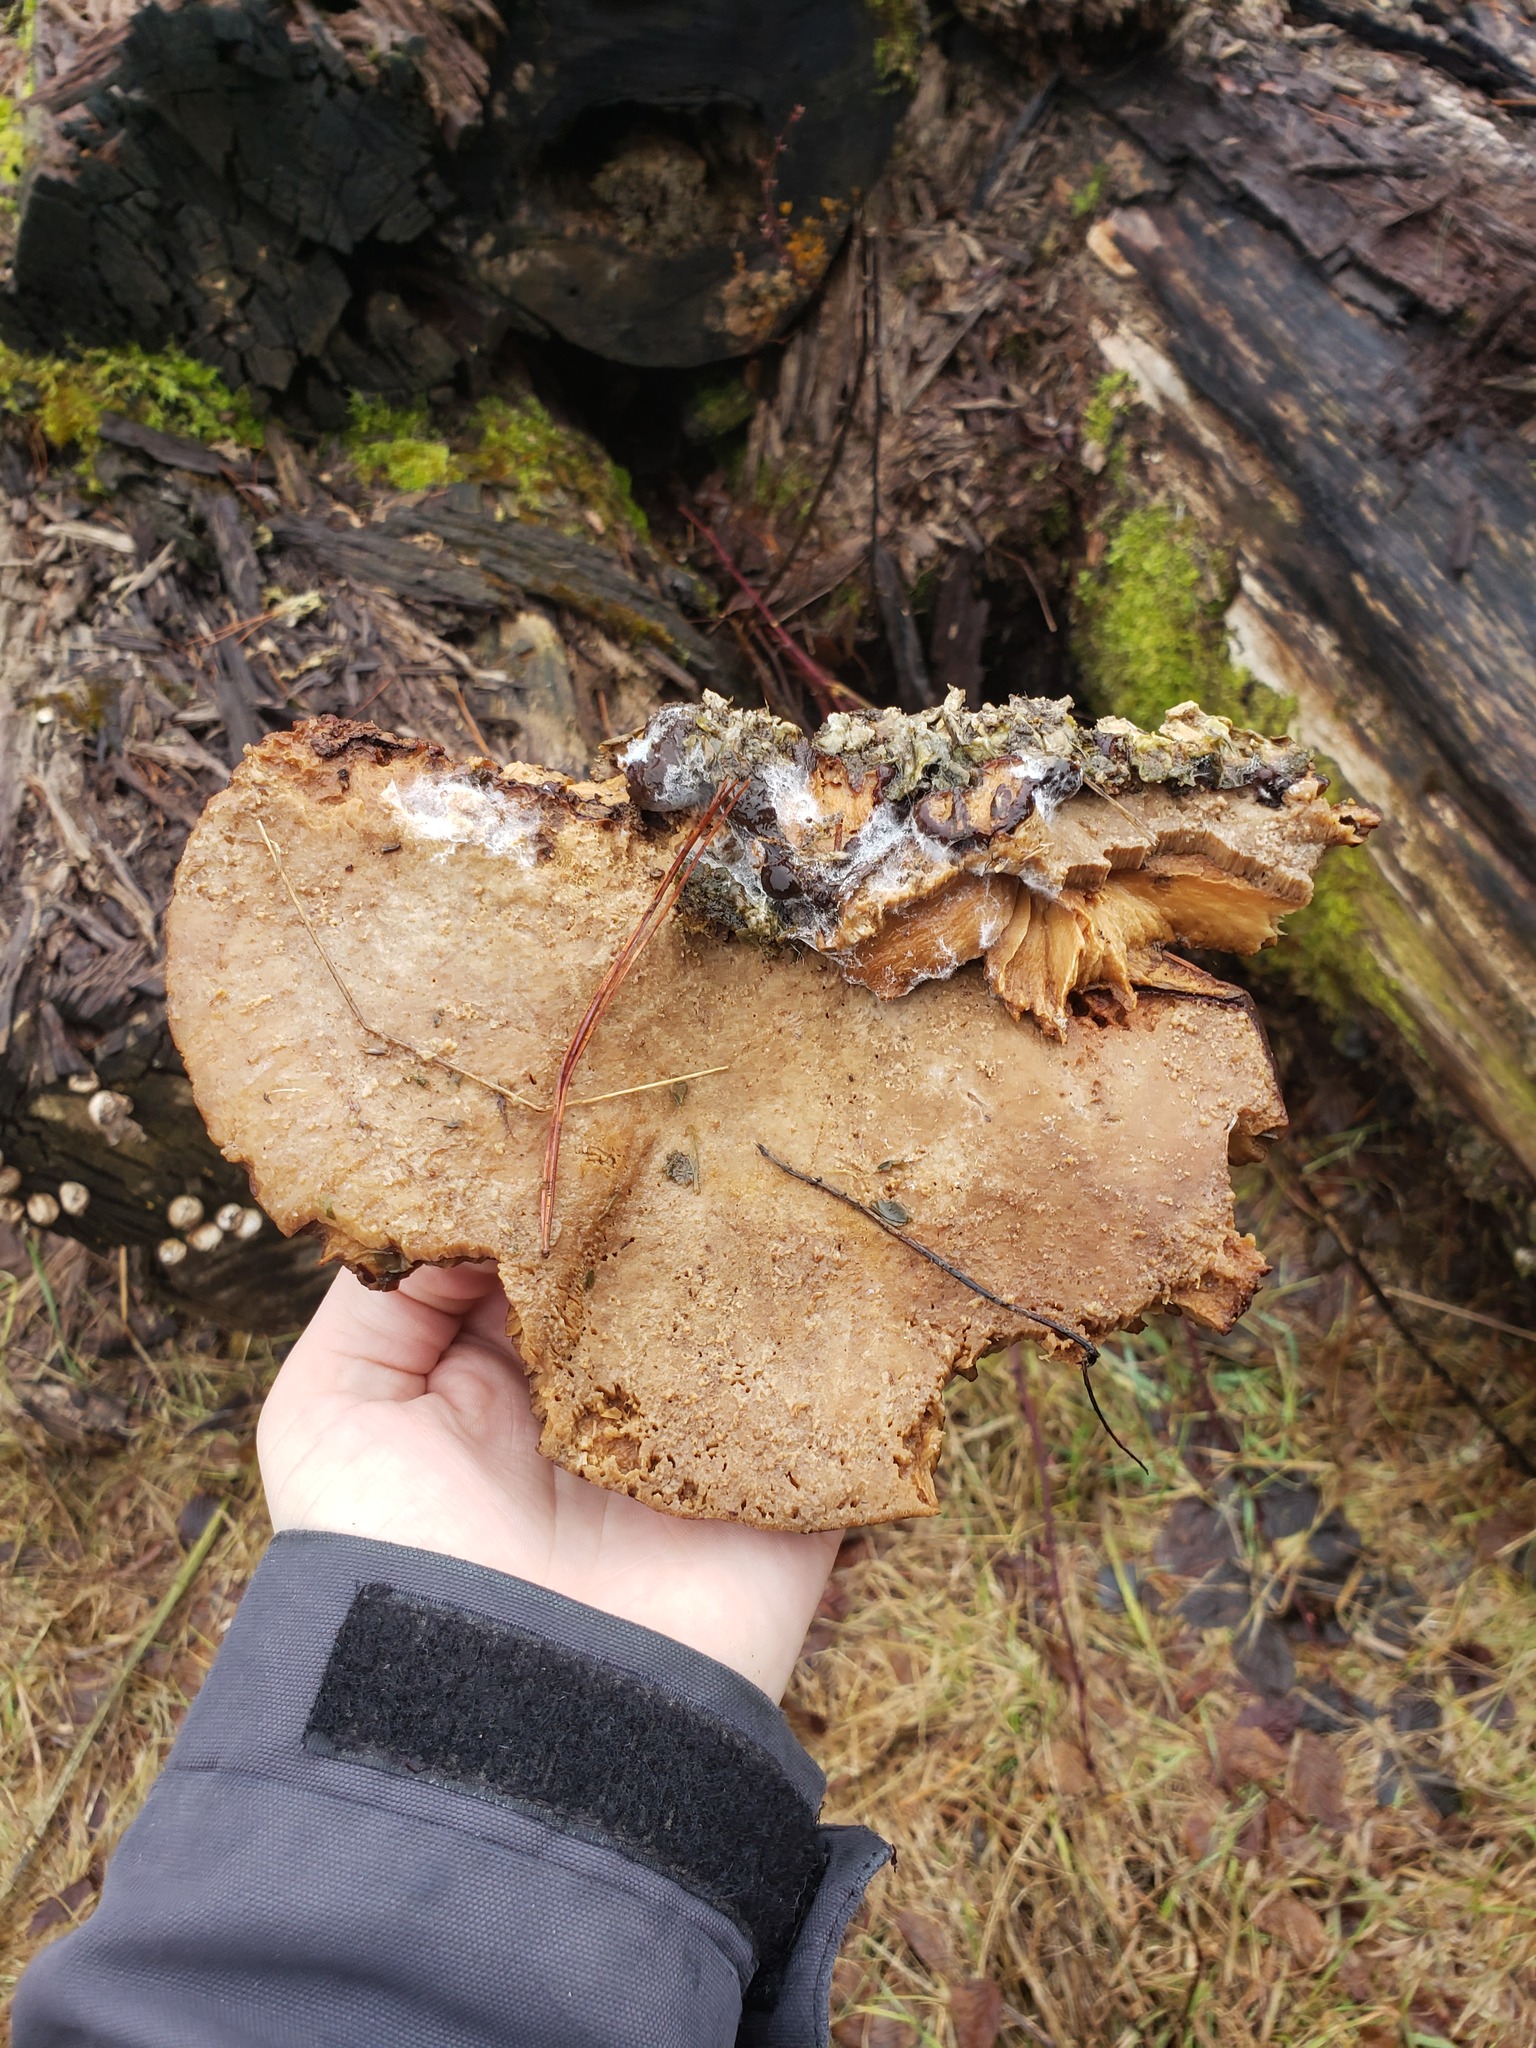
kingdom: Fungi
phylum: Basidiomycota
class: Agaricomycetes
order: Polyporales
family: Ischnodermataceae
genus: Ischnoderma
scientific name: Ischnoderma resinosum
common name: Resinous polypore
